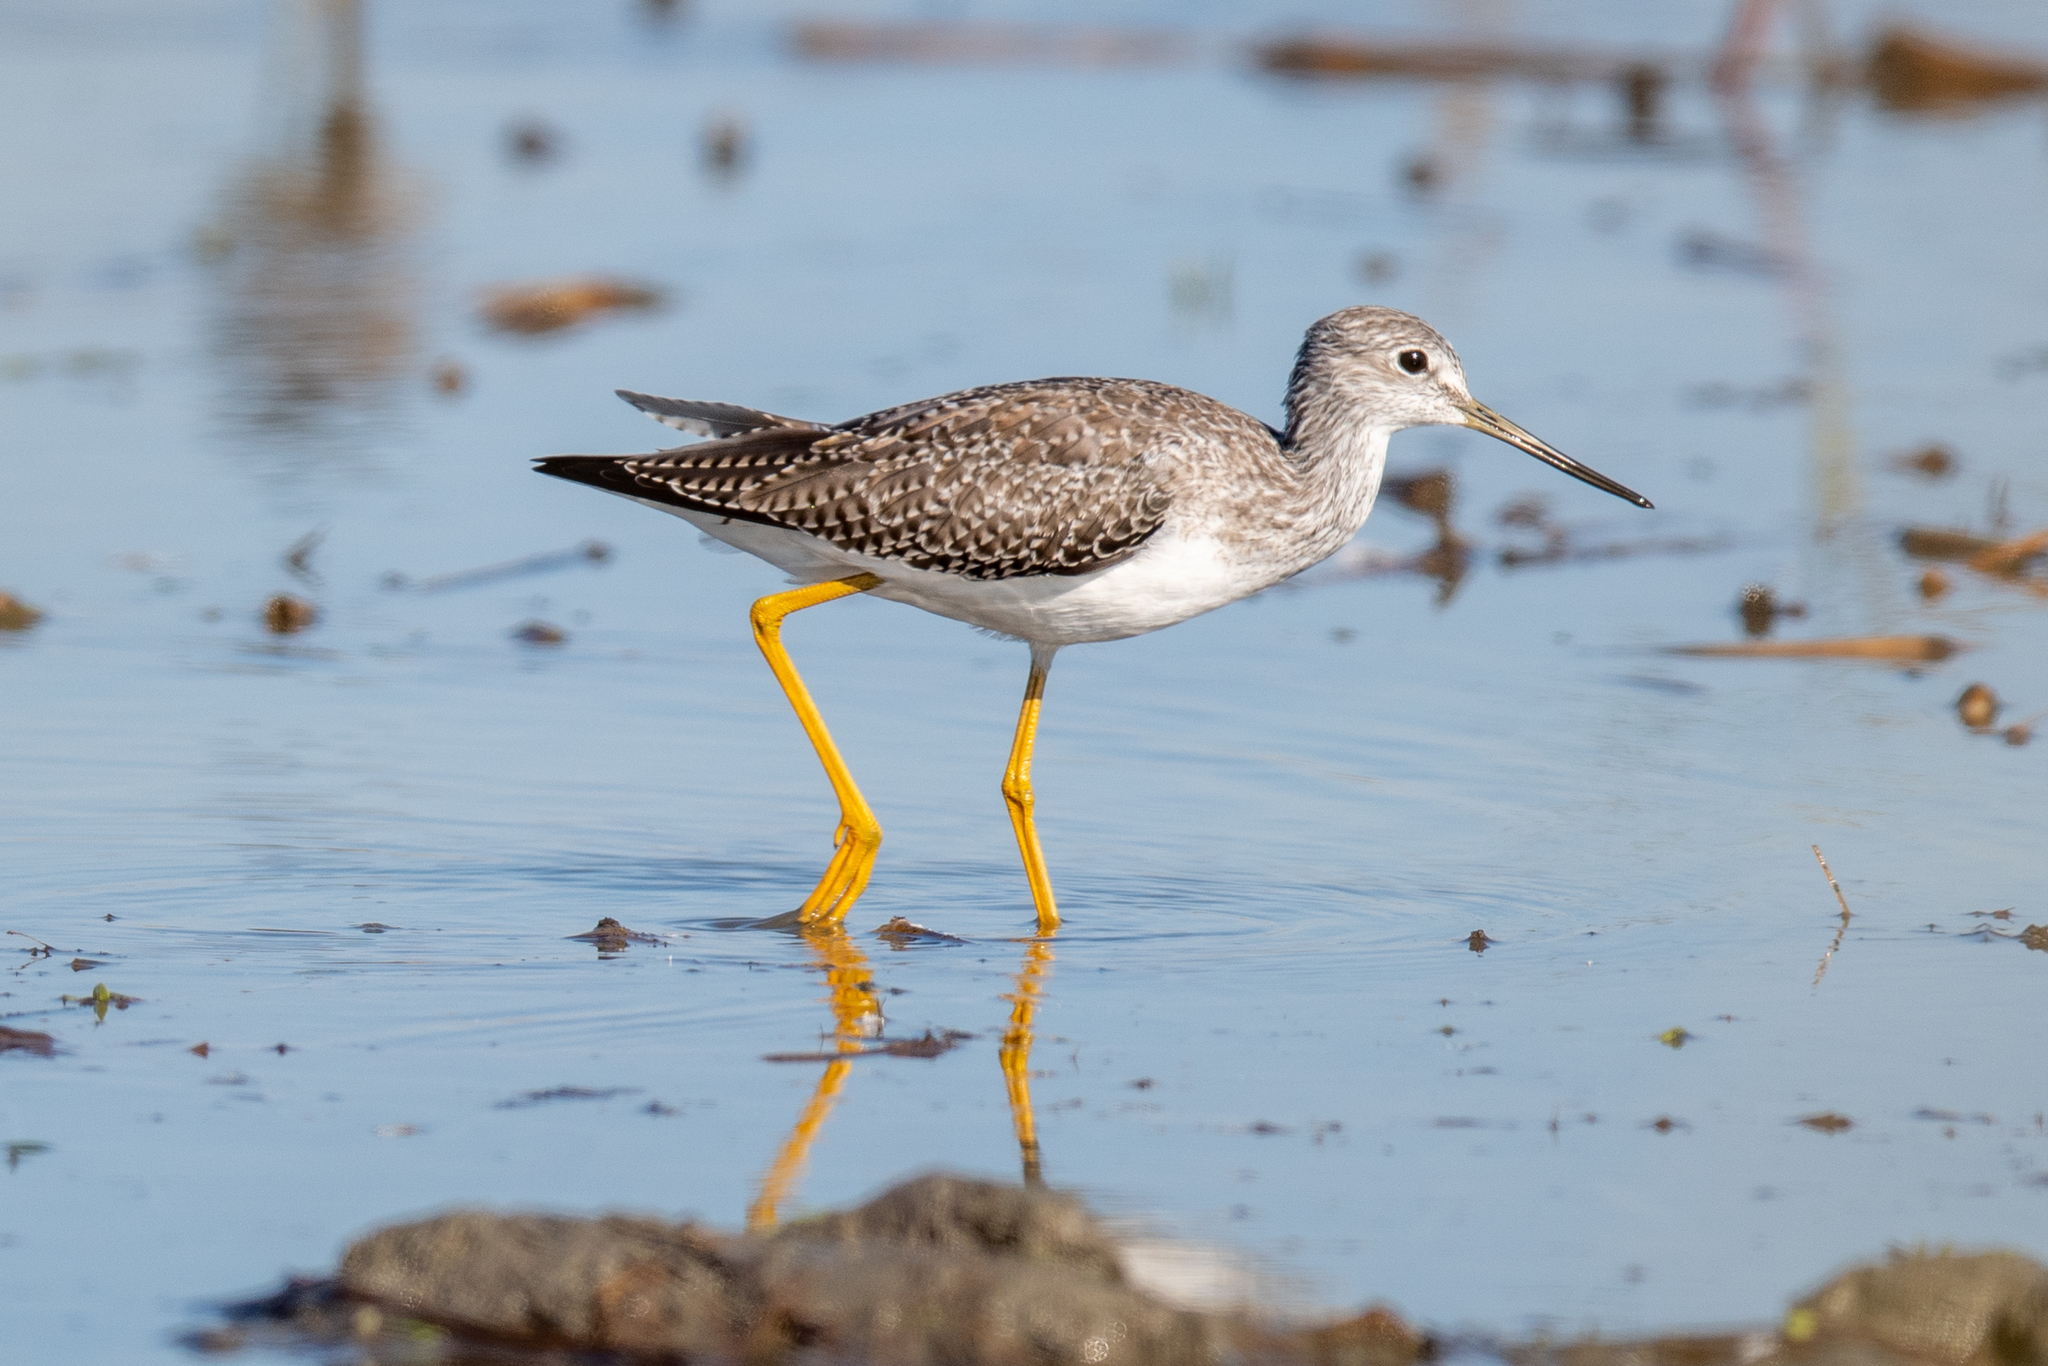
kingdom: Animalia
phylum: Chordata
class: Aves
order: Charadriiformes
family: Scolopacidae
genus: Tringa
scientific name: Tringa melanoleuca
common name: Greater yellowlegs
